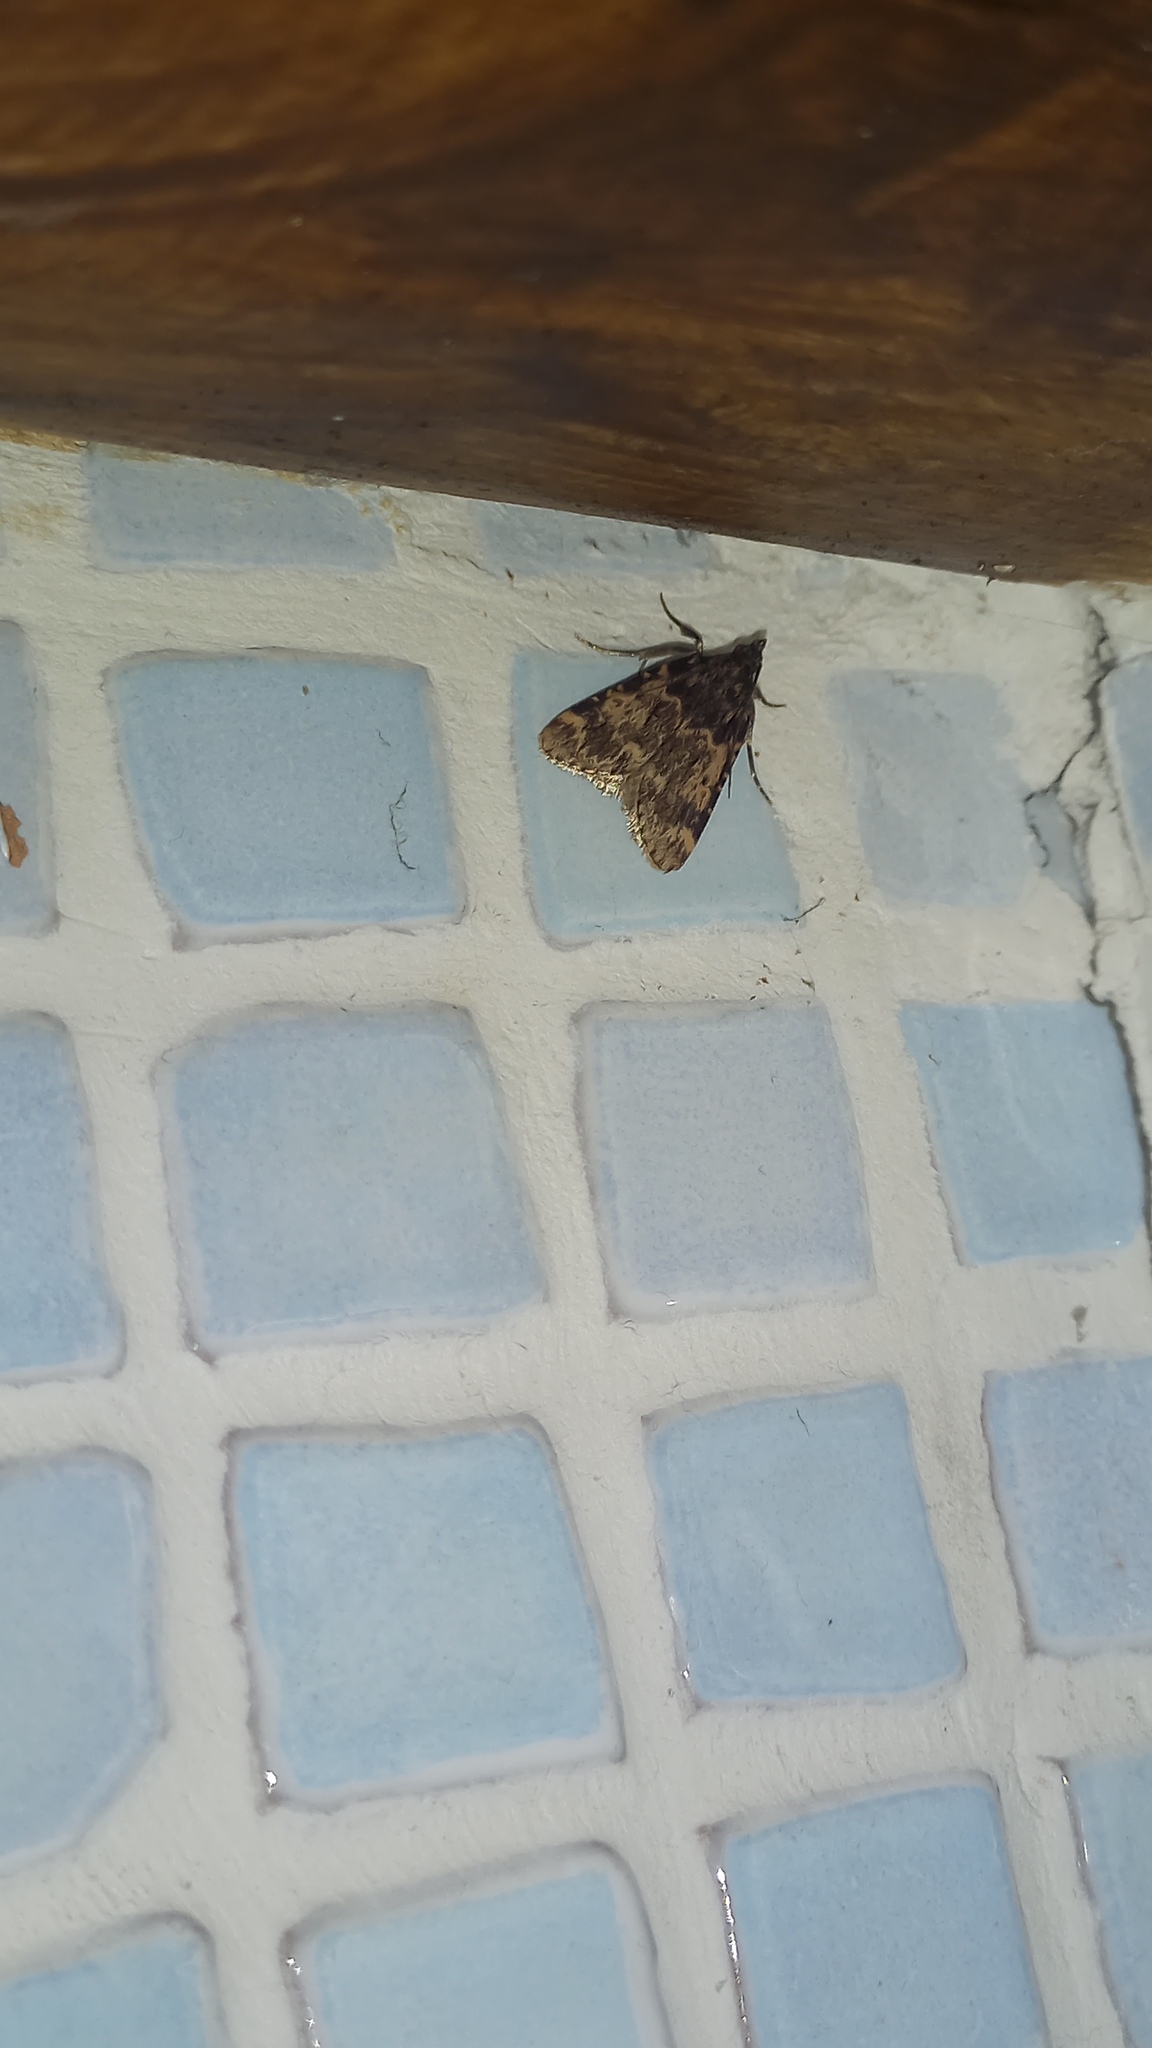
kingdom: Animalia
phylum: Arthropoda
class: Insecta
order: Lepidoptera
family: Pyralidae
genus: Aglossa
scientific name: Aglossa caprealis
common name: Small tabby
